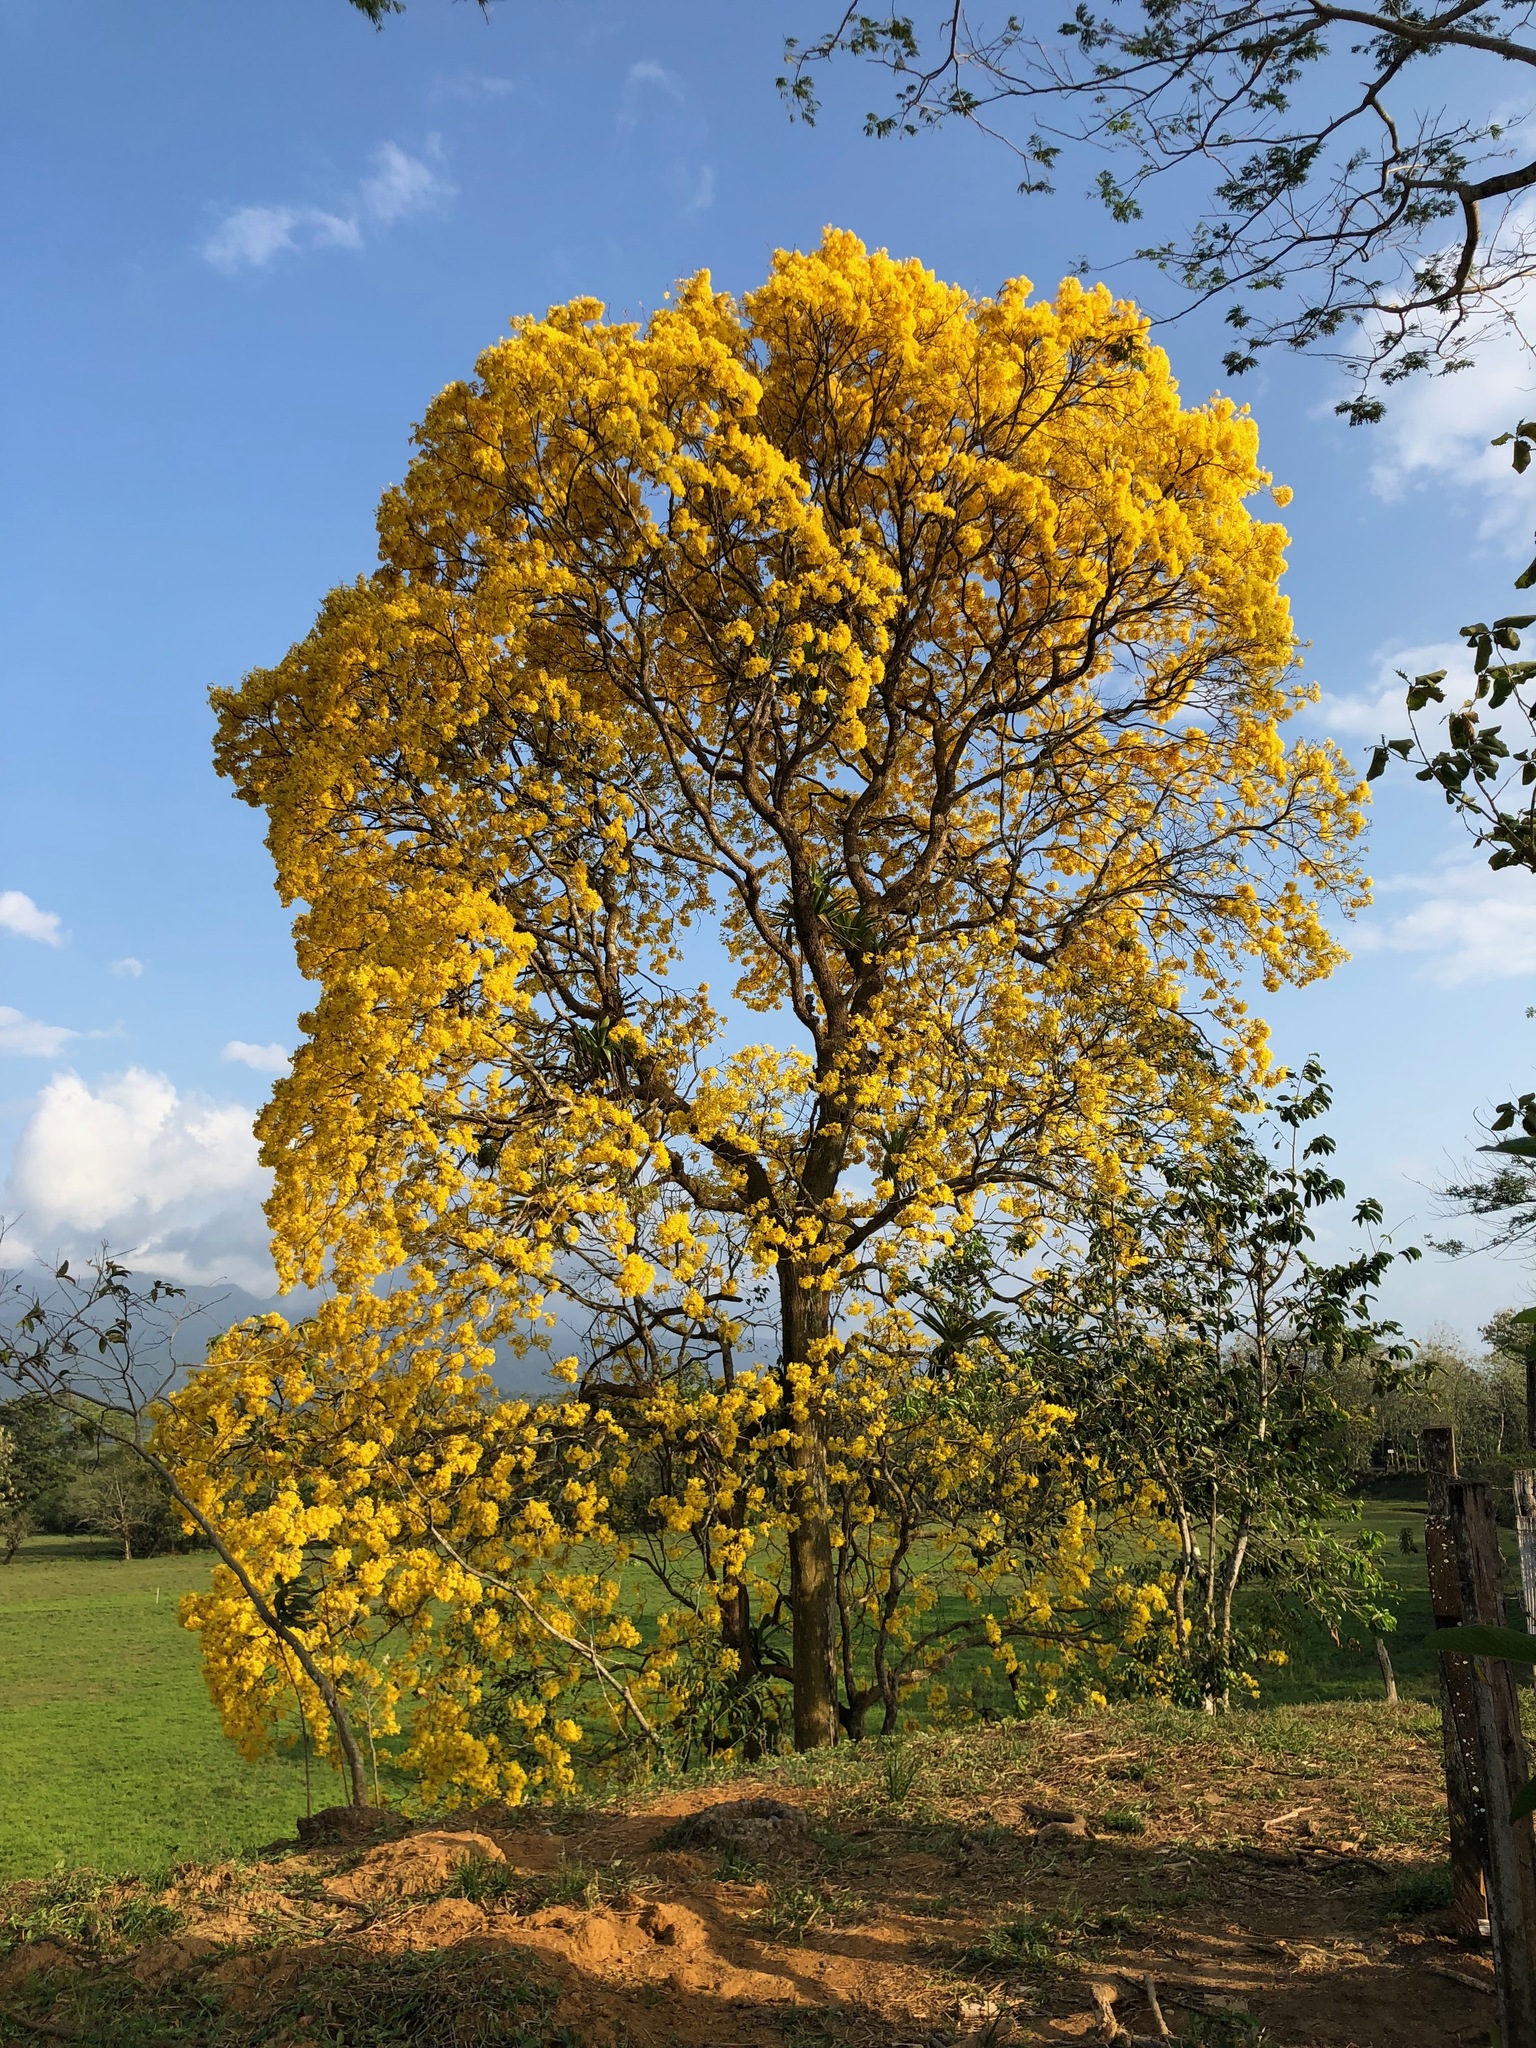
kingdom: Plantae
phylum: Tracheophyta
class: Magnoliopsida
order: Lamiales
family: Bignoniaceae
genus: Handroanthus
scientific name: Handroanthus chrysanthus
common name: Trumpet trees
